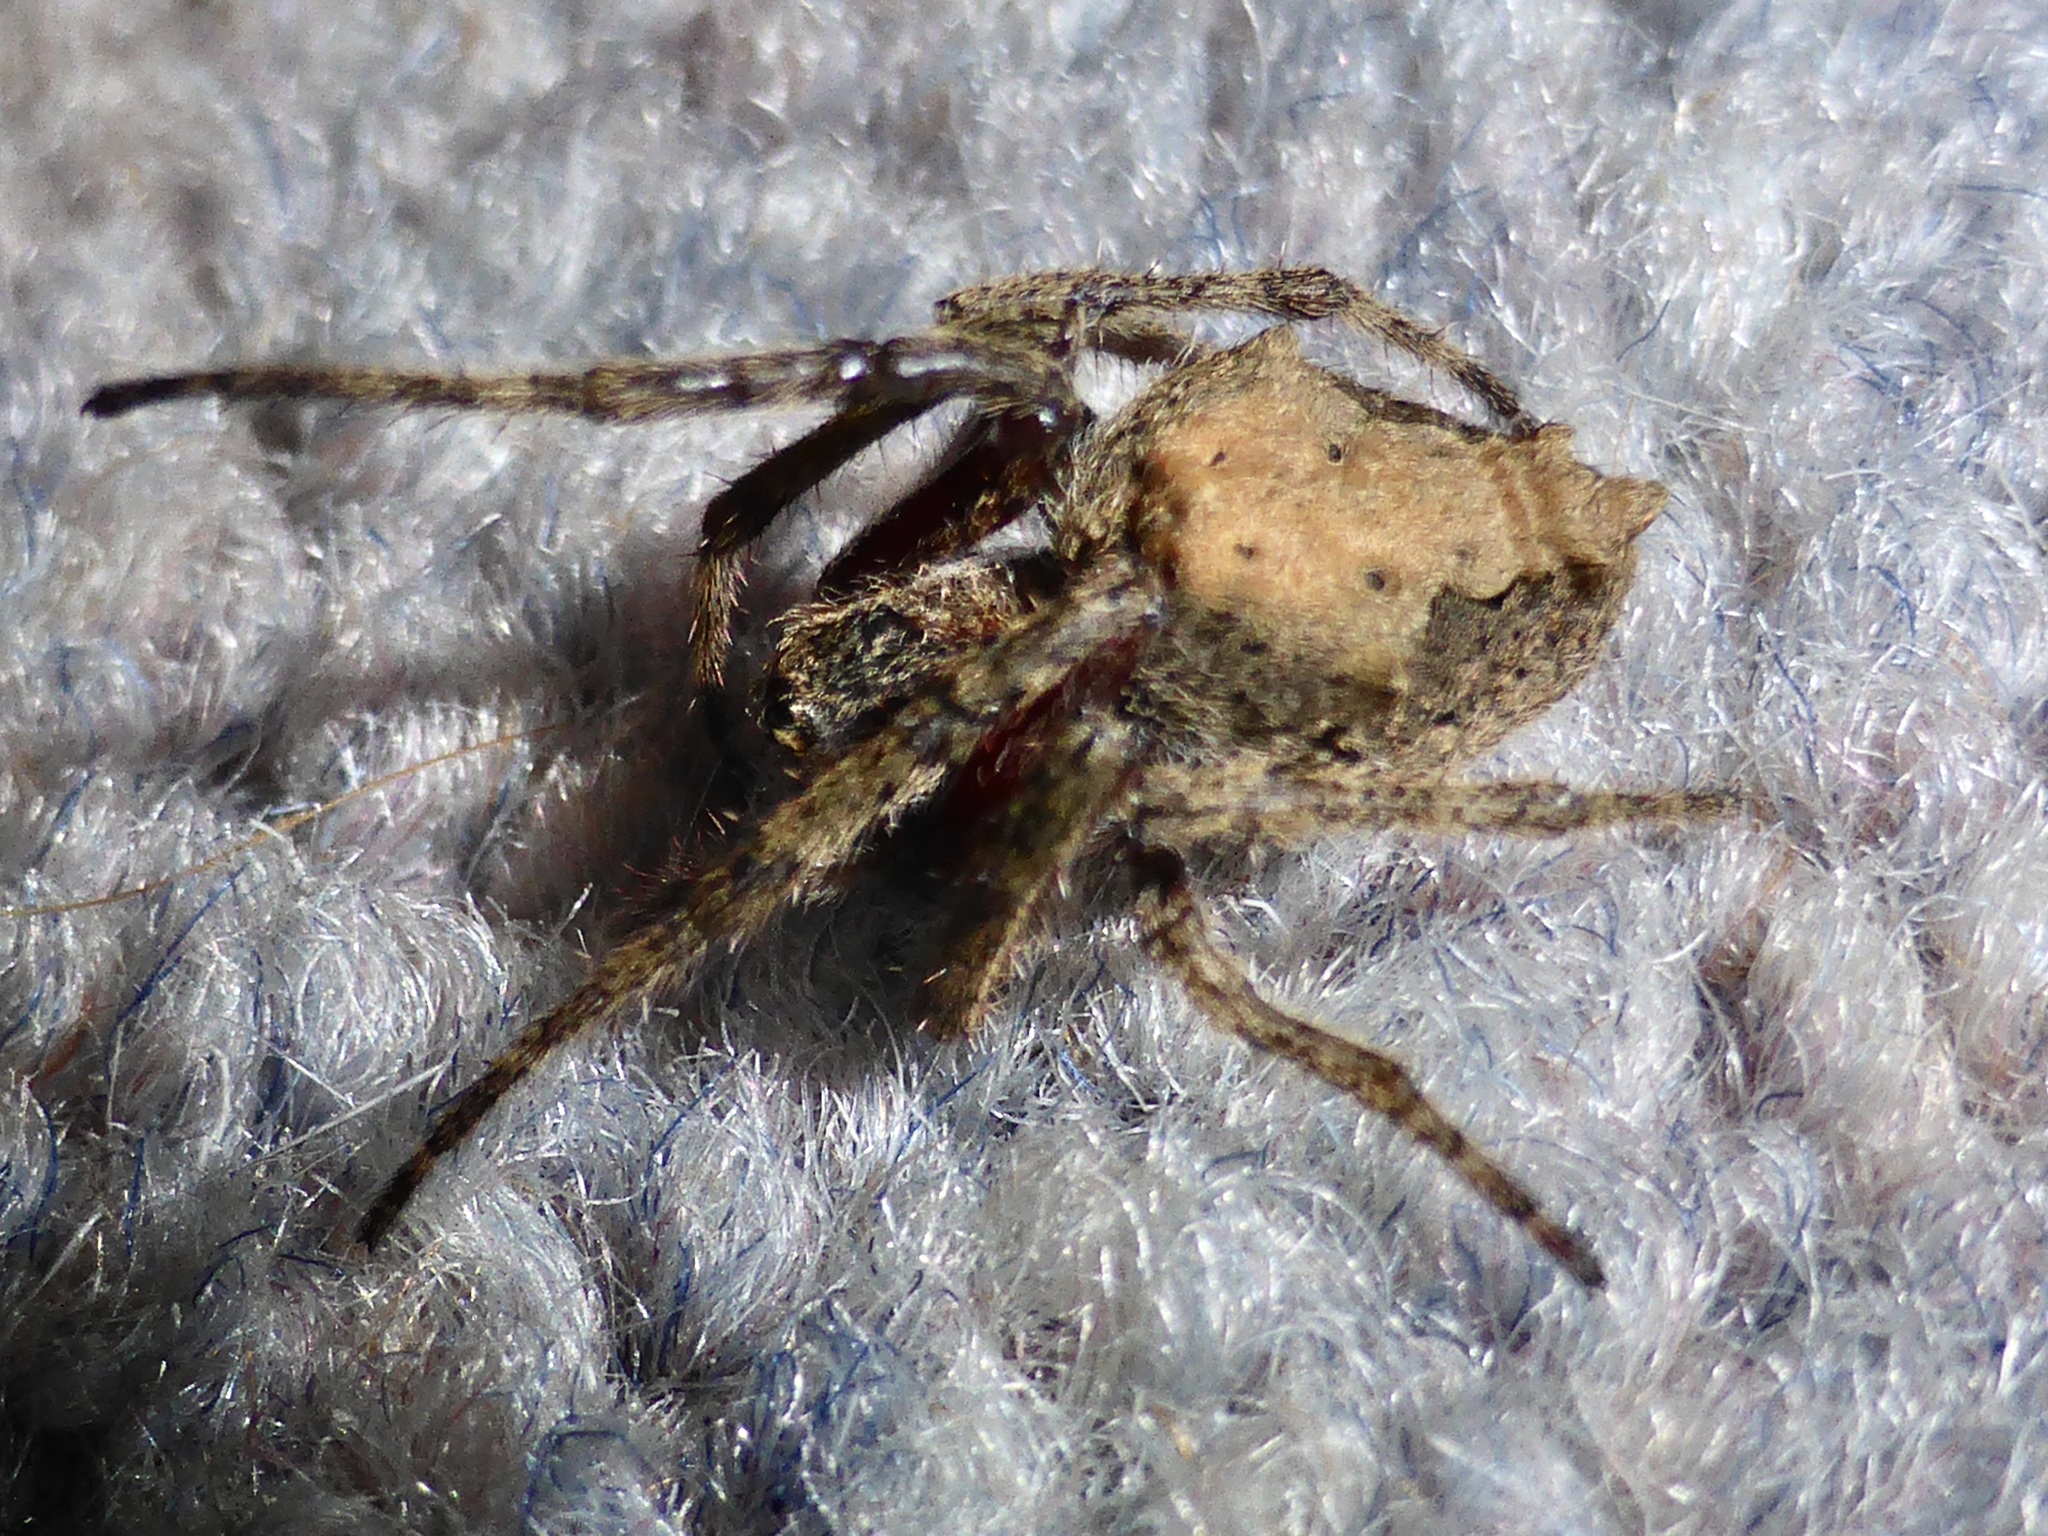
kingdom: Animalia
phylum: Arthropoda
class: Arachnida
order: Araneae
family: Araneidae
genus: Eriophora
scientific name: Eriophora pustulosa
